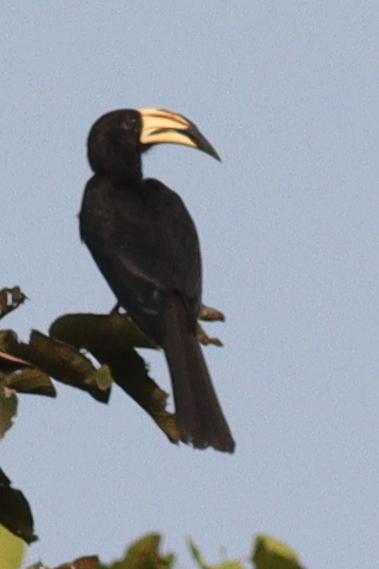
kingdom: Animalia
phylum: Chordata
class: Aves
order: Bucerotiformes
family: Bucerotidae
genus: Lophoceros
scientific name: Lophoceros fasciatus
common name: African pied hornbill
